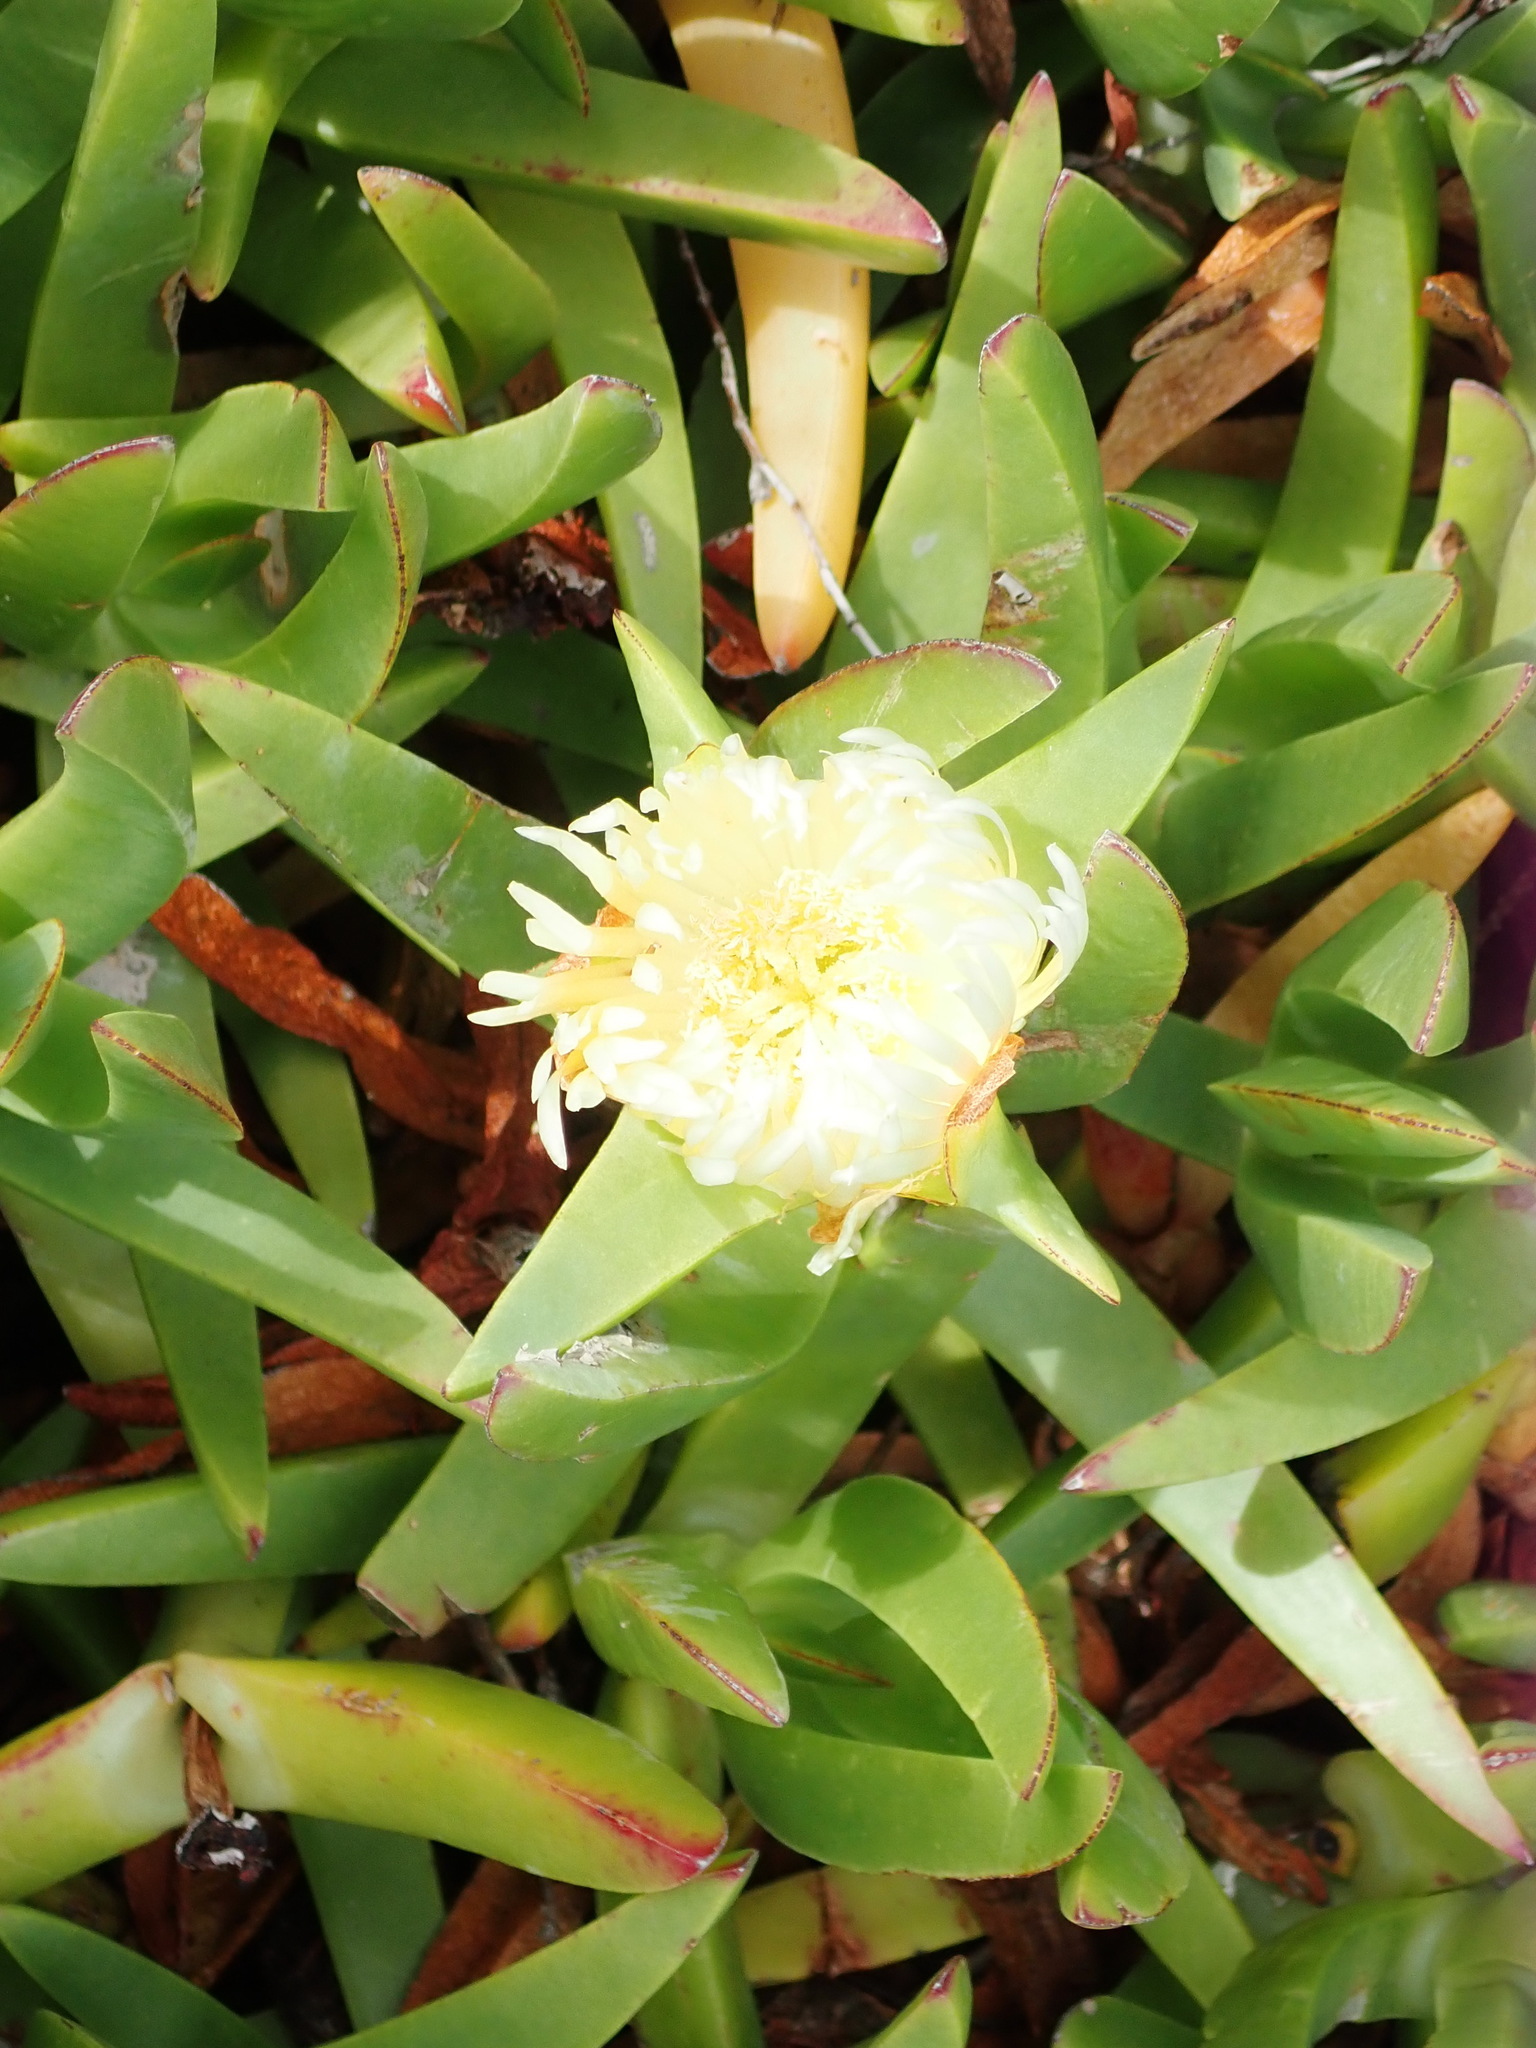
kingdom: Plantae
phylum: Tracheophyta
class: Magnoliopsida
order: Caryophyllales
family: Aizoaceae
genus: Carpobrotus
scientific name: Carpobrotus edulis
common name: Hottentot-fig
